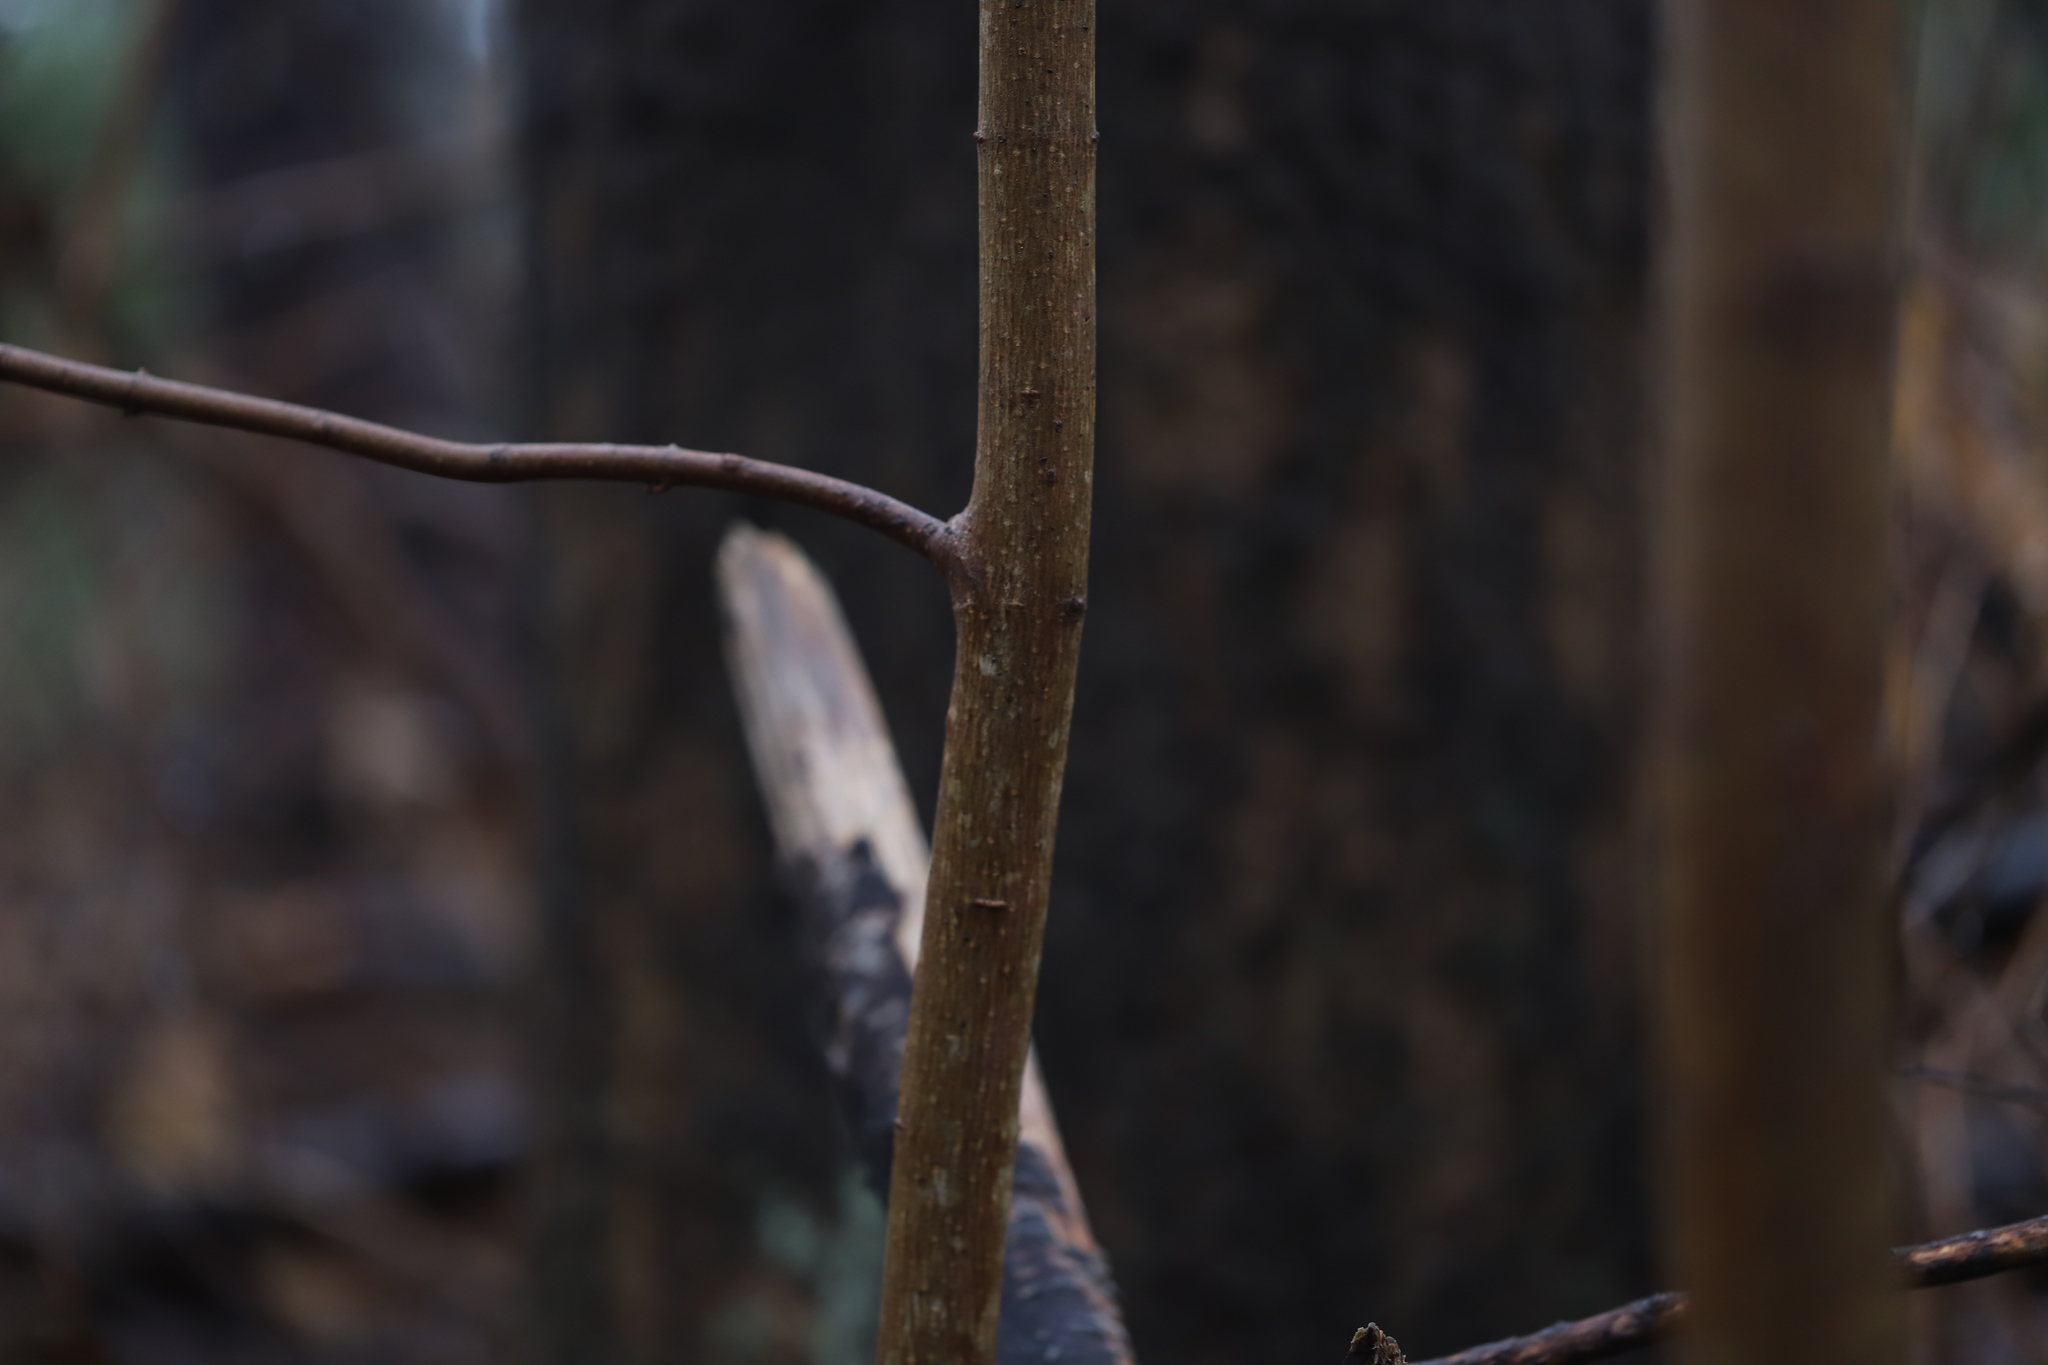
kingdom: Plantae
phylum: Tracheophyta
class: Magnoliopsida
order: Sapindales
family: Sapindaceae
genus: Acer
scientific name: Acer platanoides
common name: Norway maple
